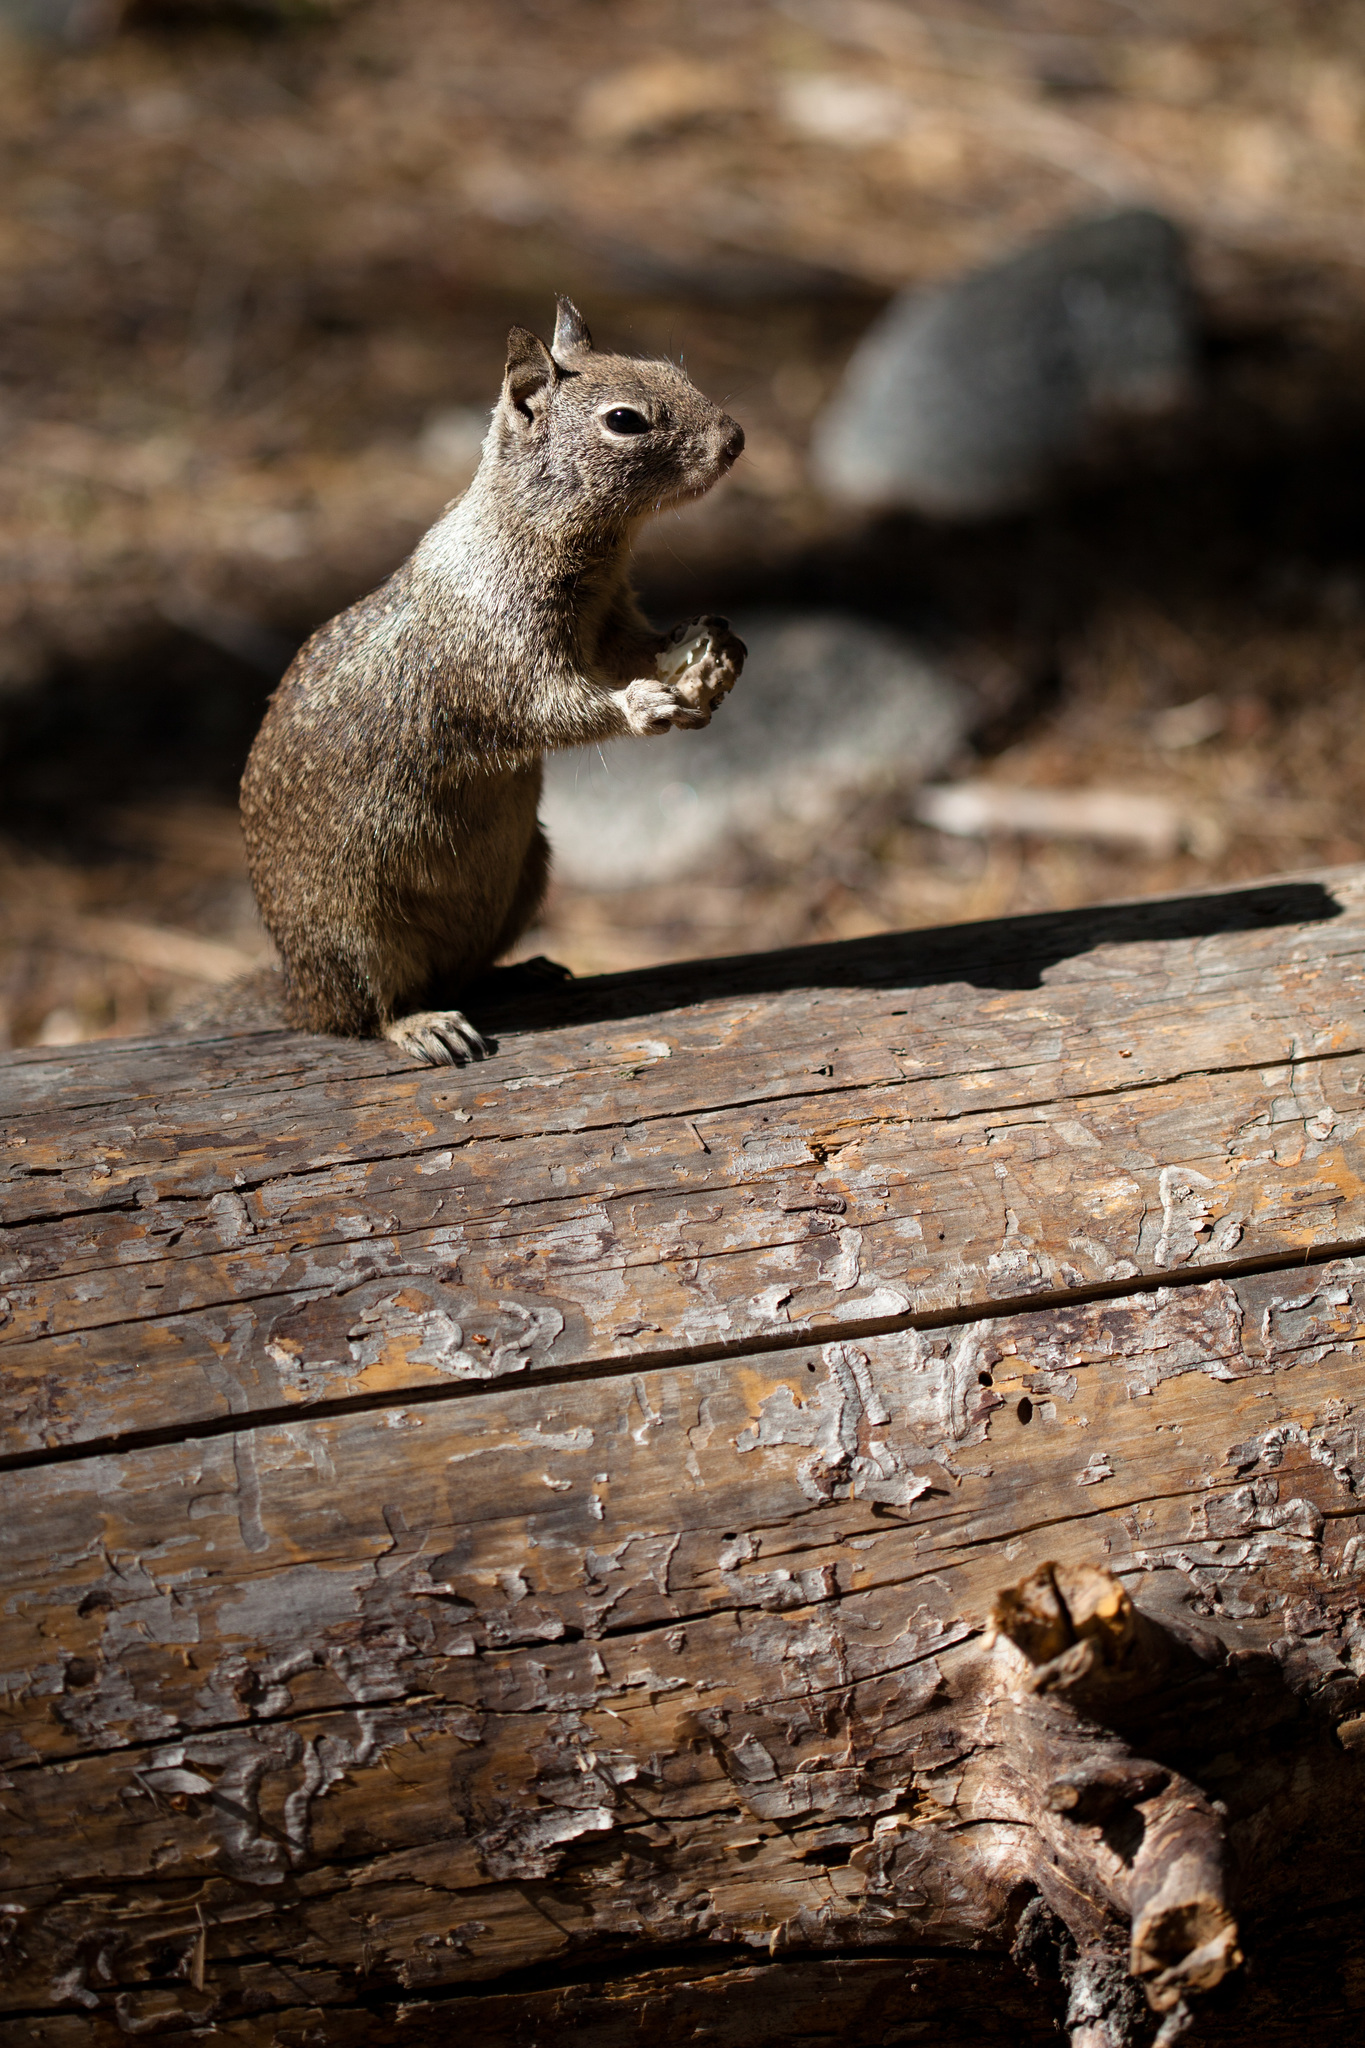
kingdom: Animalia
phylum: Chordata
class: Mammalia
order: Rodentia
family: Sciuridae
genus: Otospermophilus
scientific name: Otospermophilus beecheyi
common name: California ground squirrel
